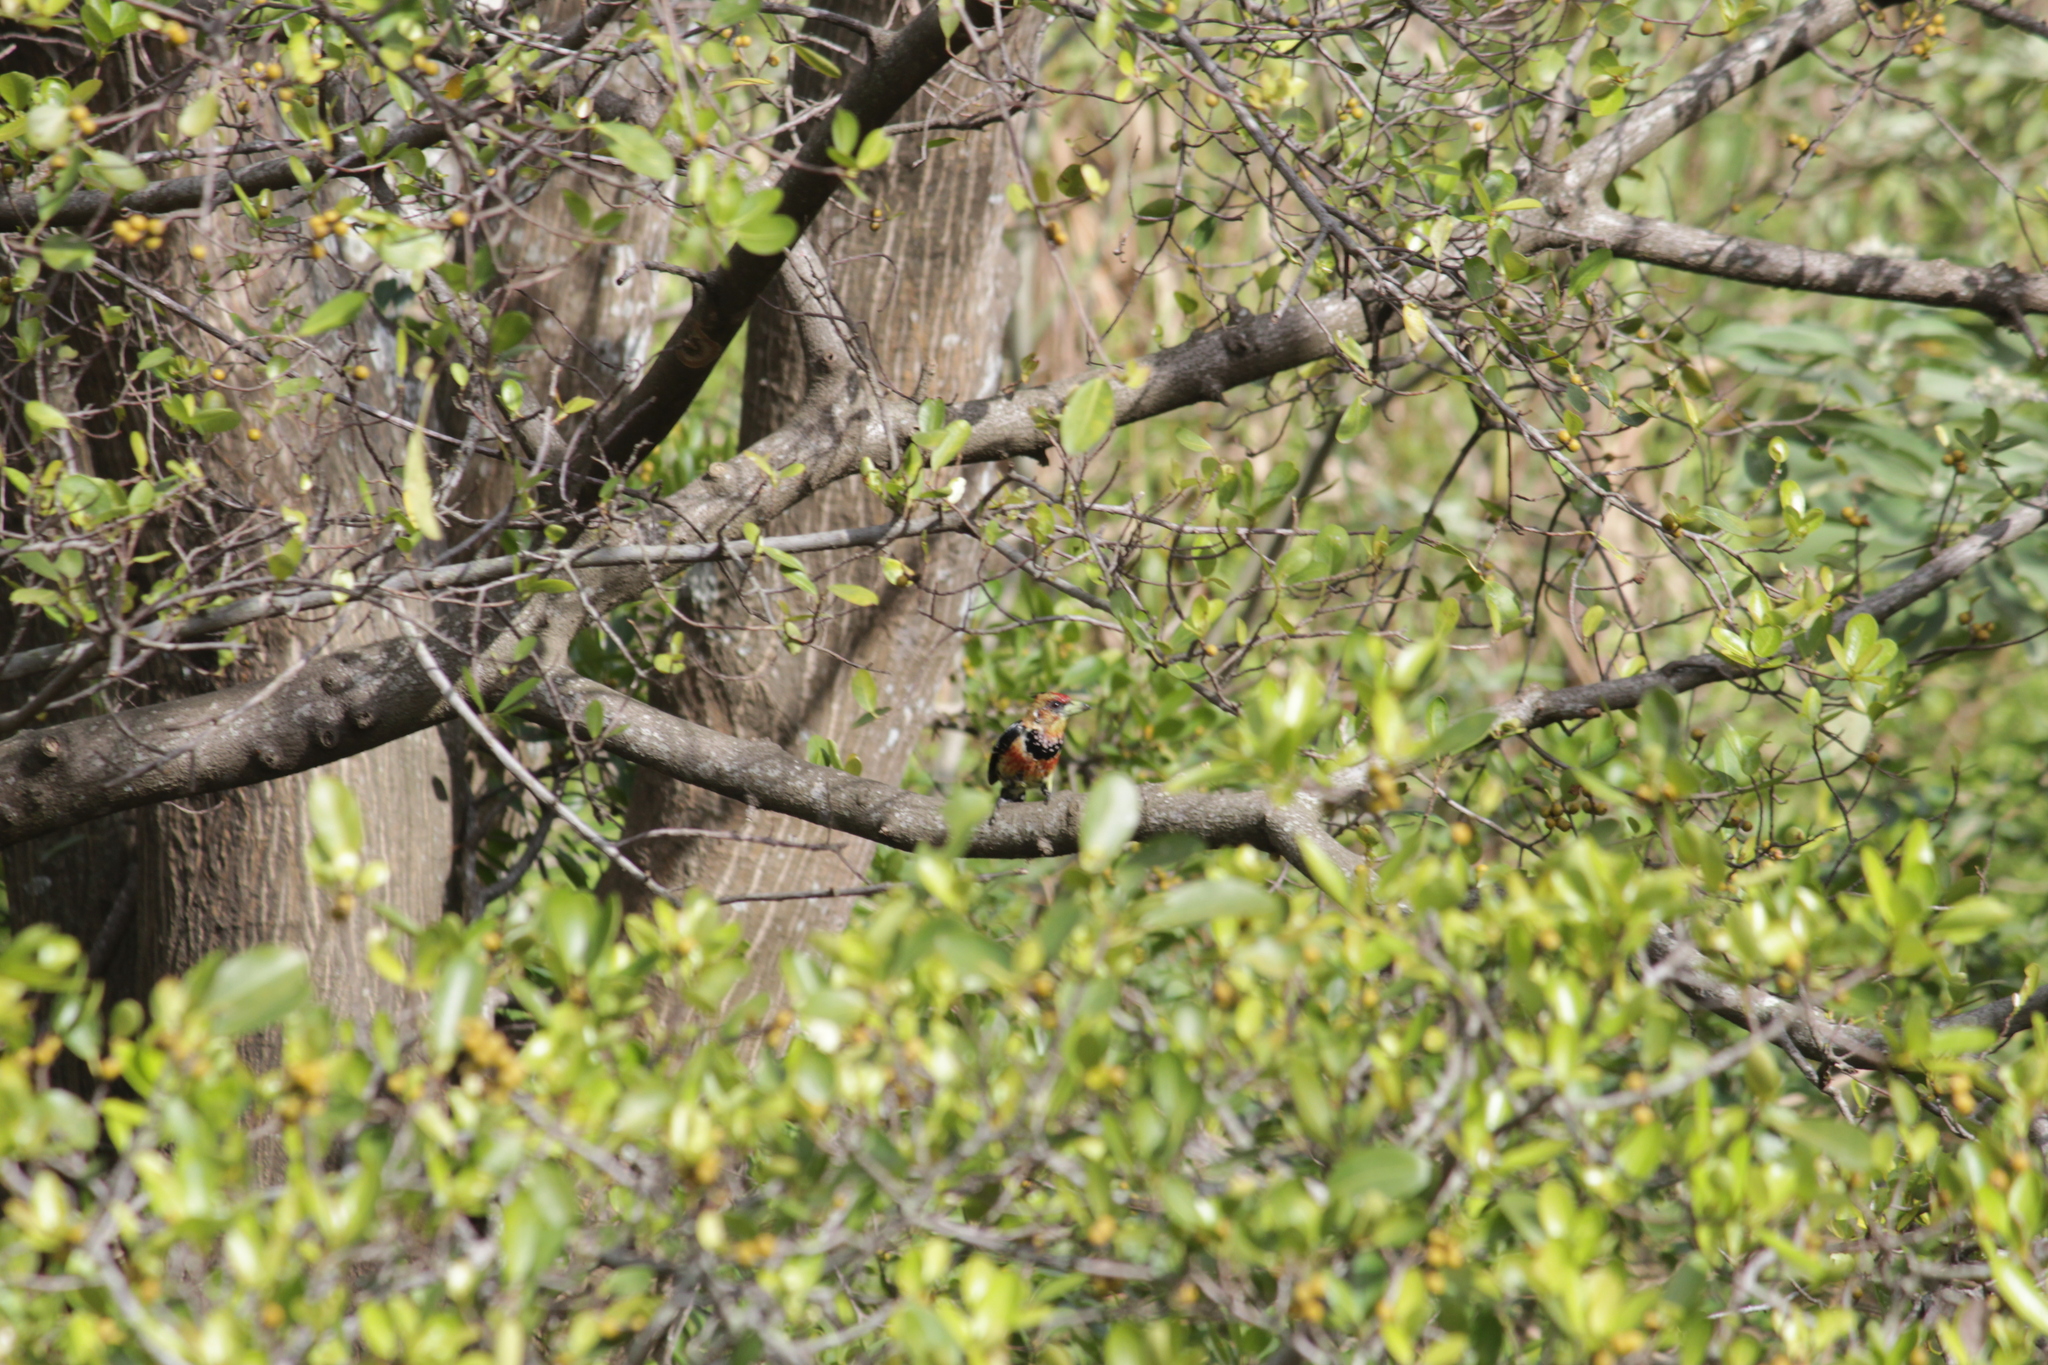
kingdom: Animalia
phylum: Chordata
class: Aves
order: Piciformes
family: Lybiidae
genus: Trachyphonus
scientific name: Trachyphonus vaillantii
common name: Crested barbet
